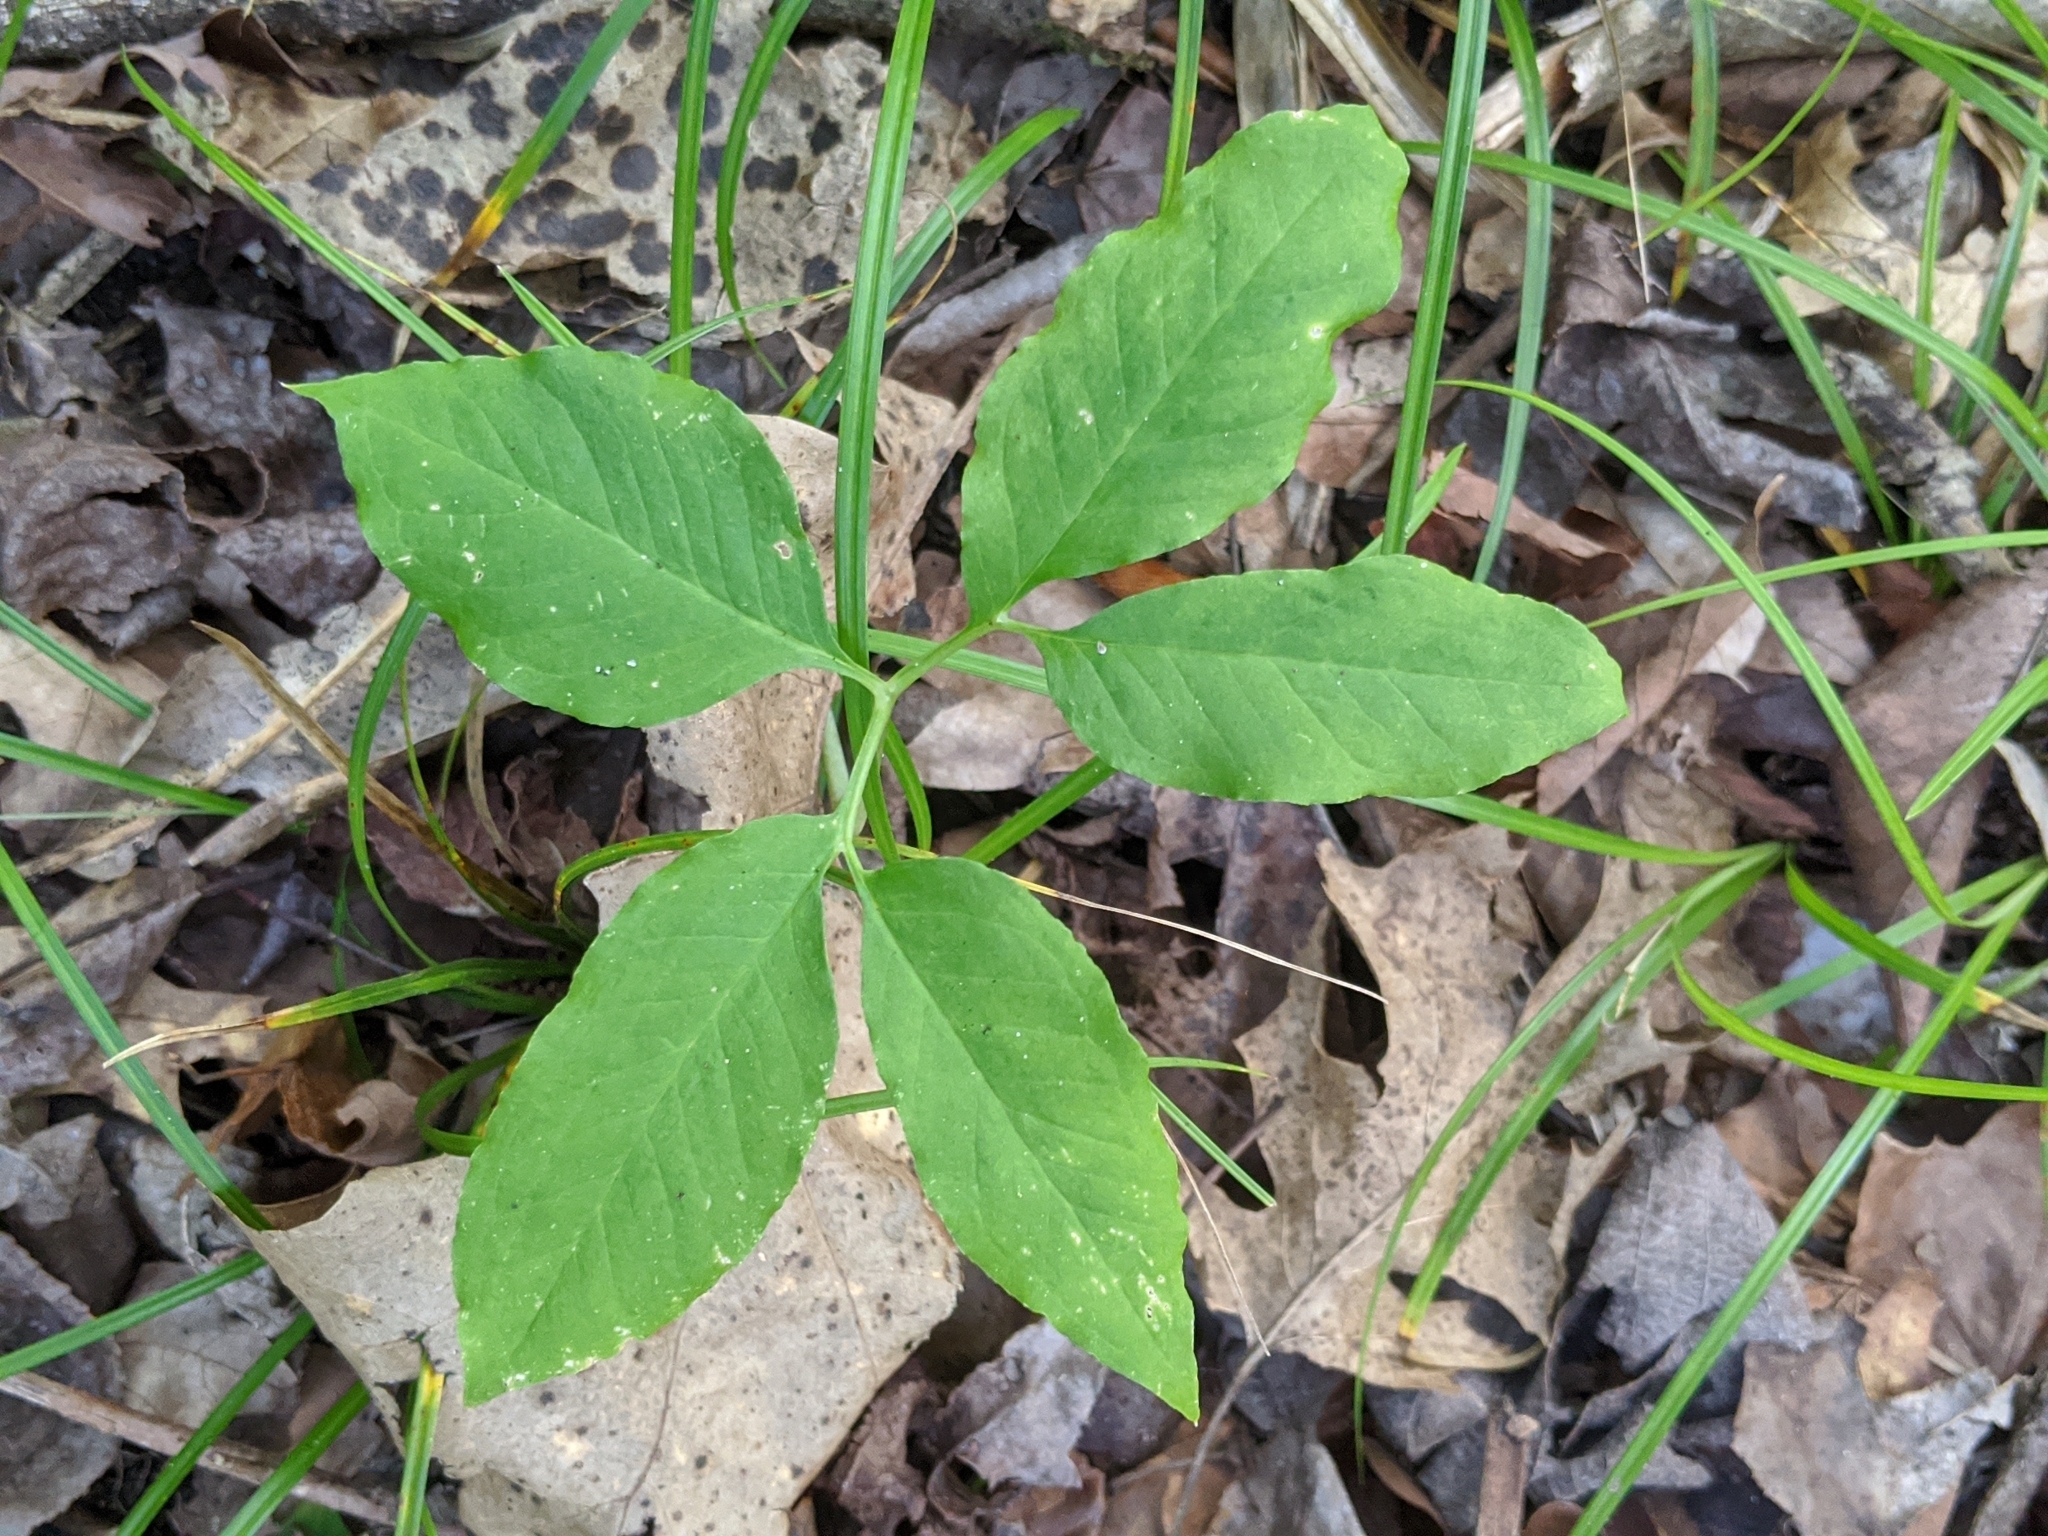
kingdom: Plantae
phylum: Tracheophyta
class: Liliopsida
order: Alismatales
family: Araceae
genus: Arisaema
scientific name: Arisaema dracontium
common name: Dragon-arum
